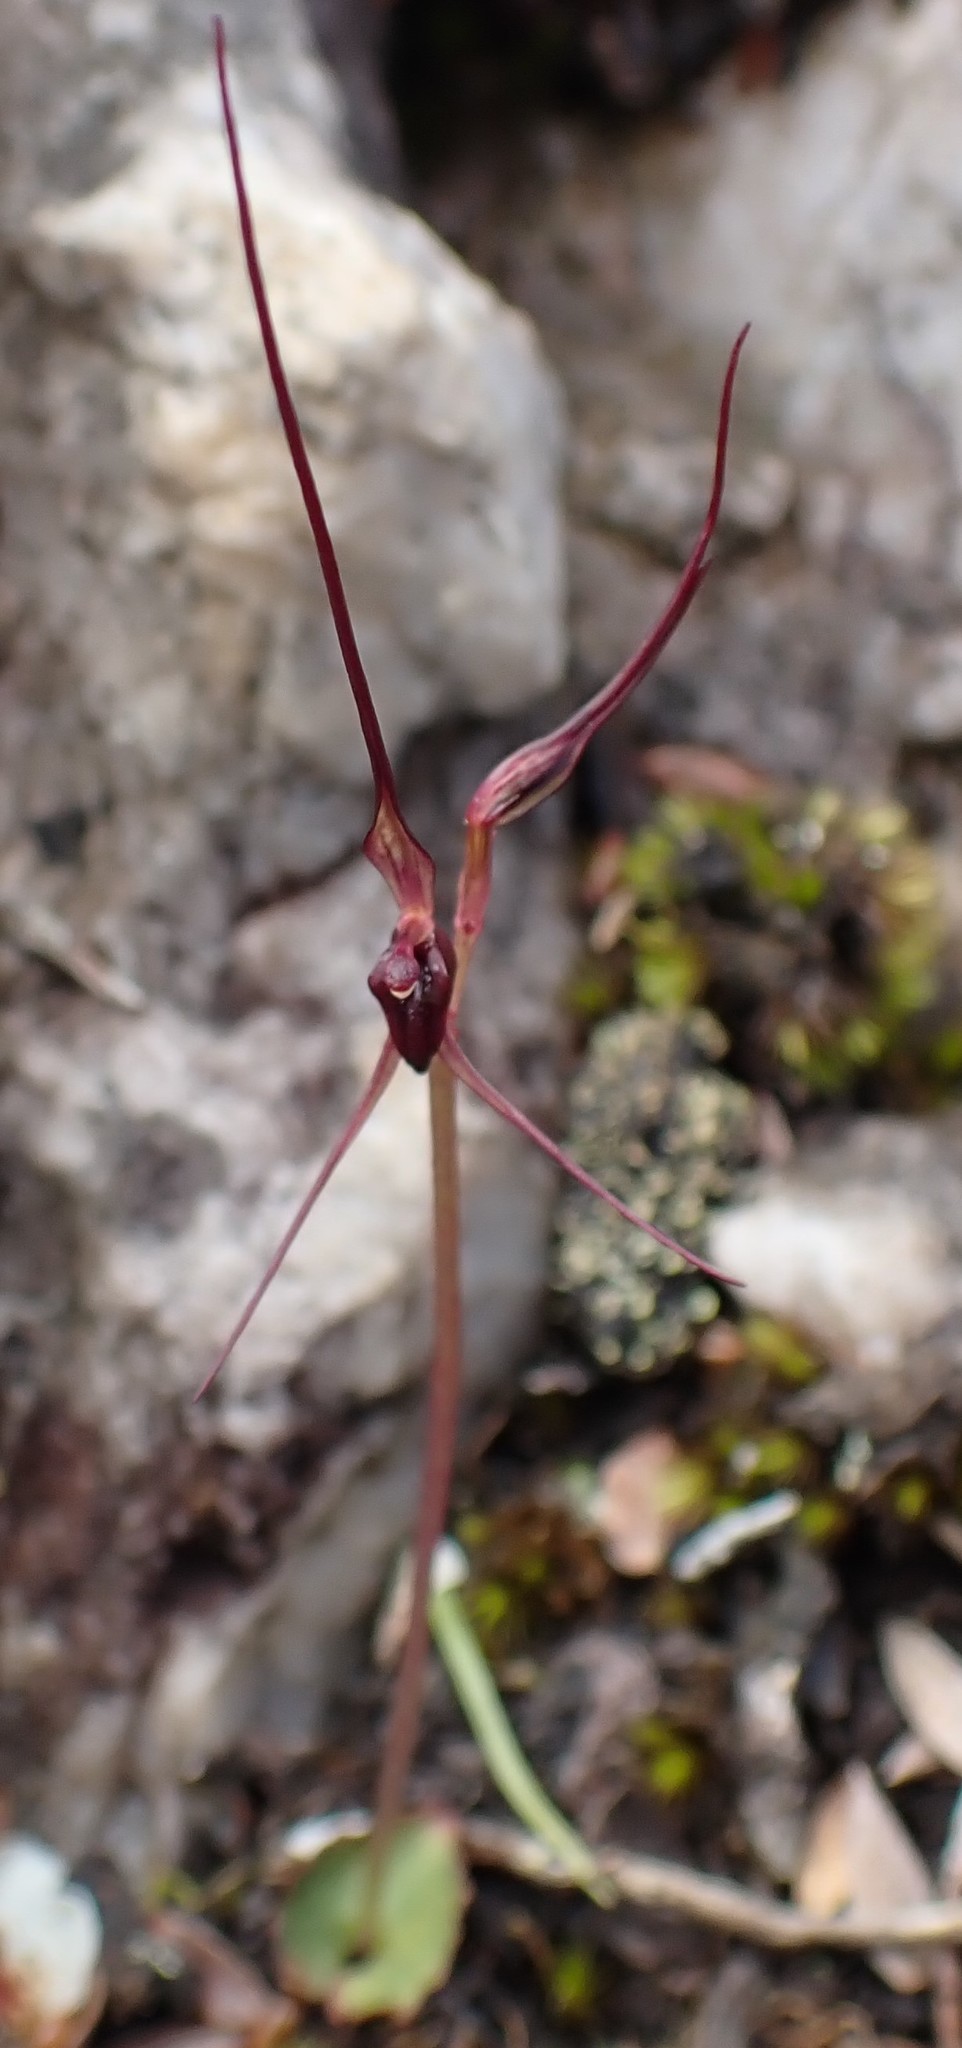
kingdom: Plantae
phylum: Tracheophyta
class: Liliopsida
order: Asparagales
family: Orchidaceae
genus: Acianthus
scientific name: Acianthus caudatus
